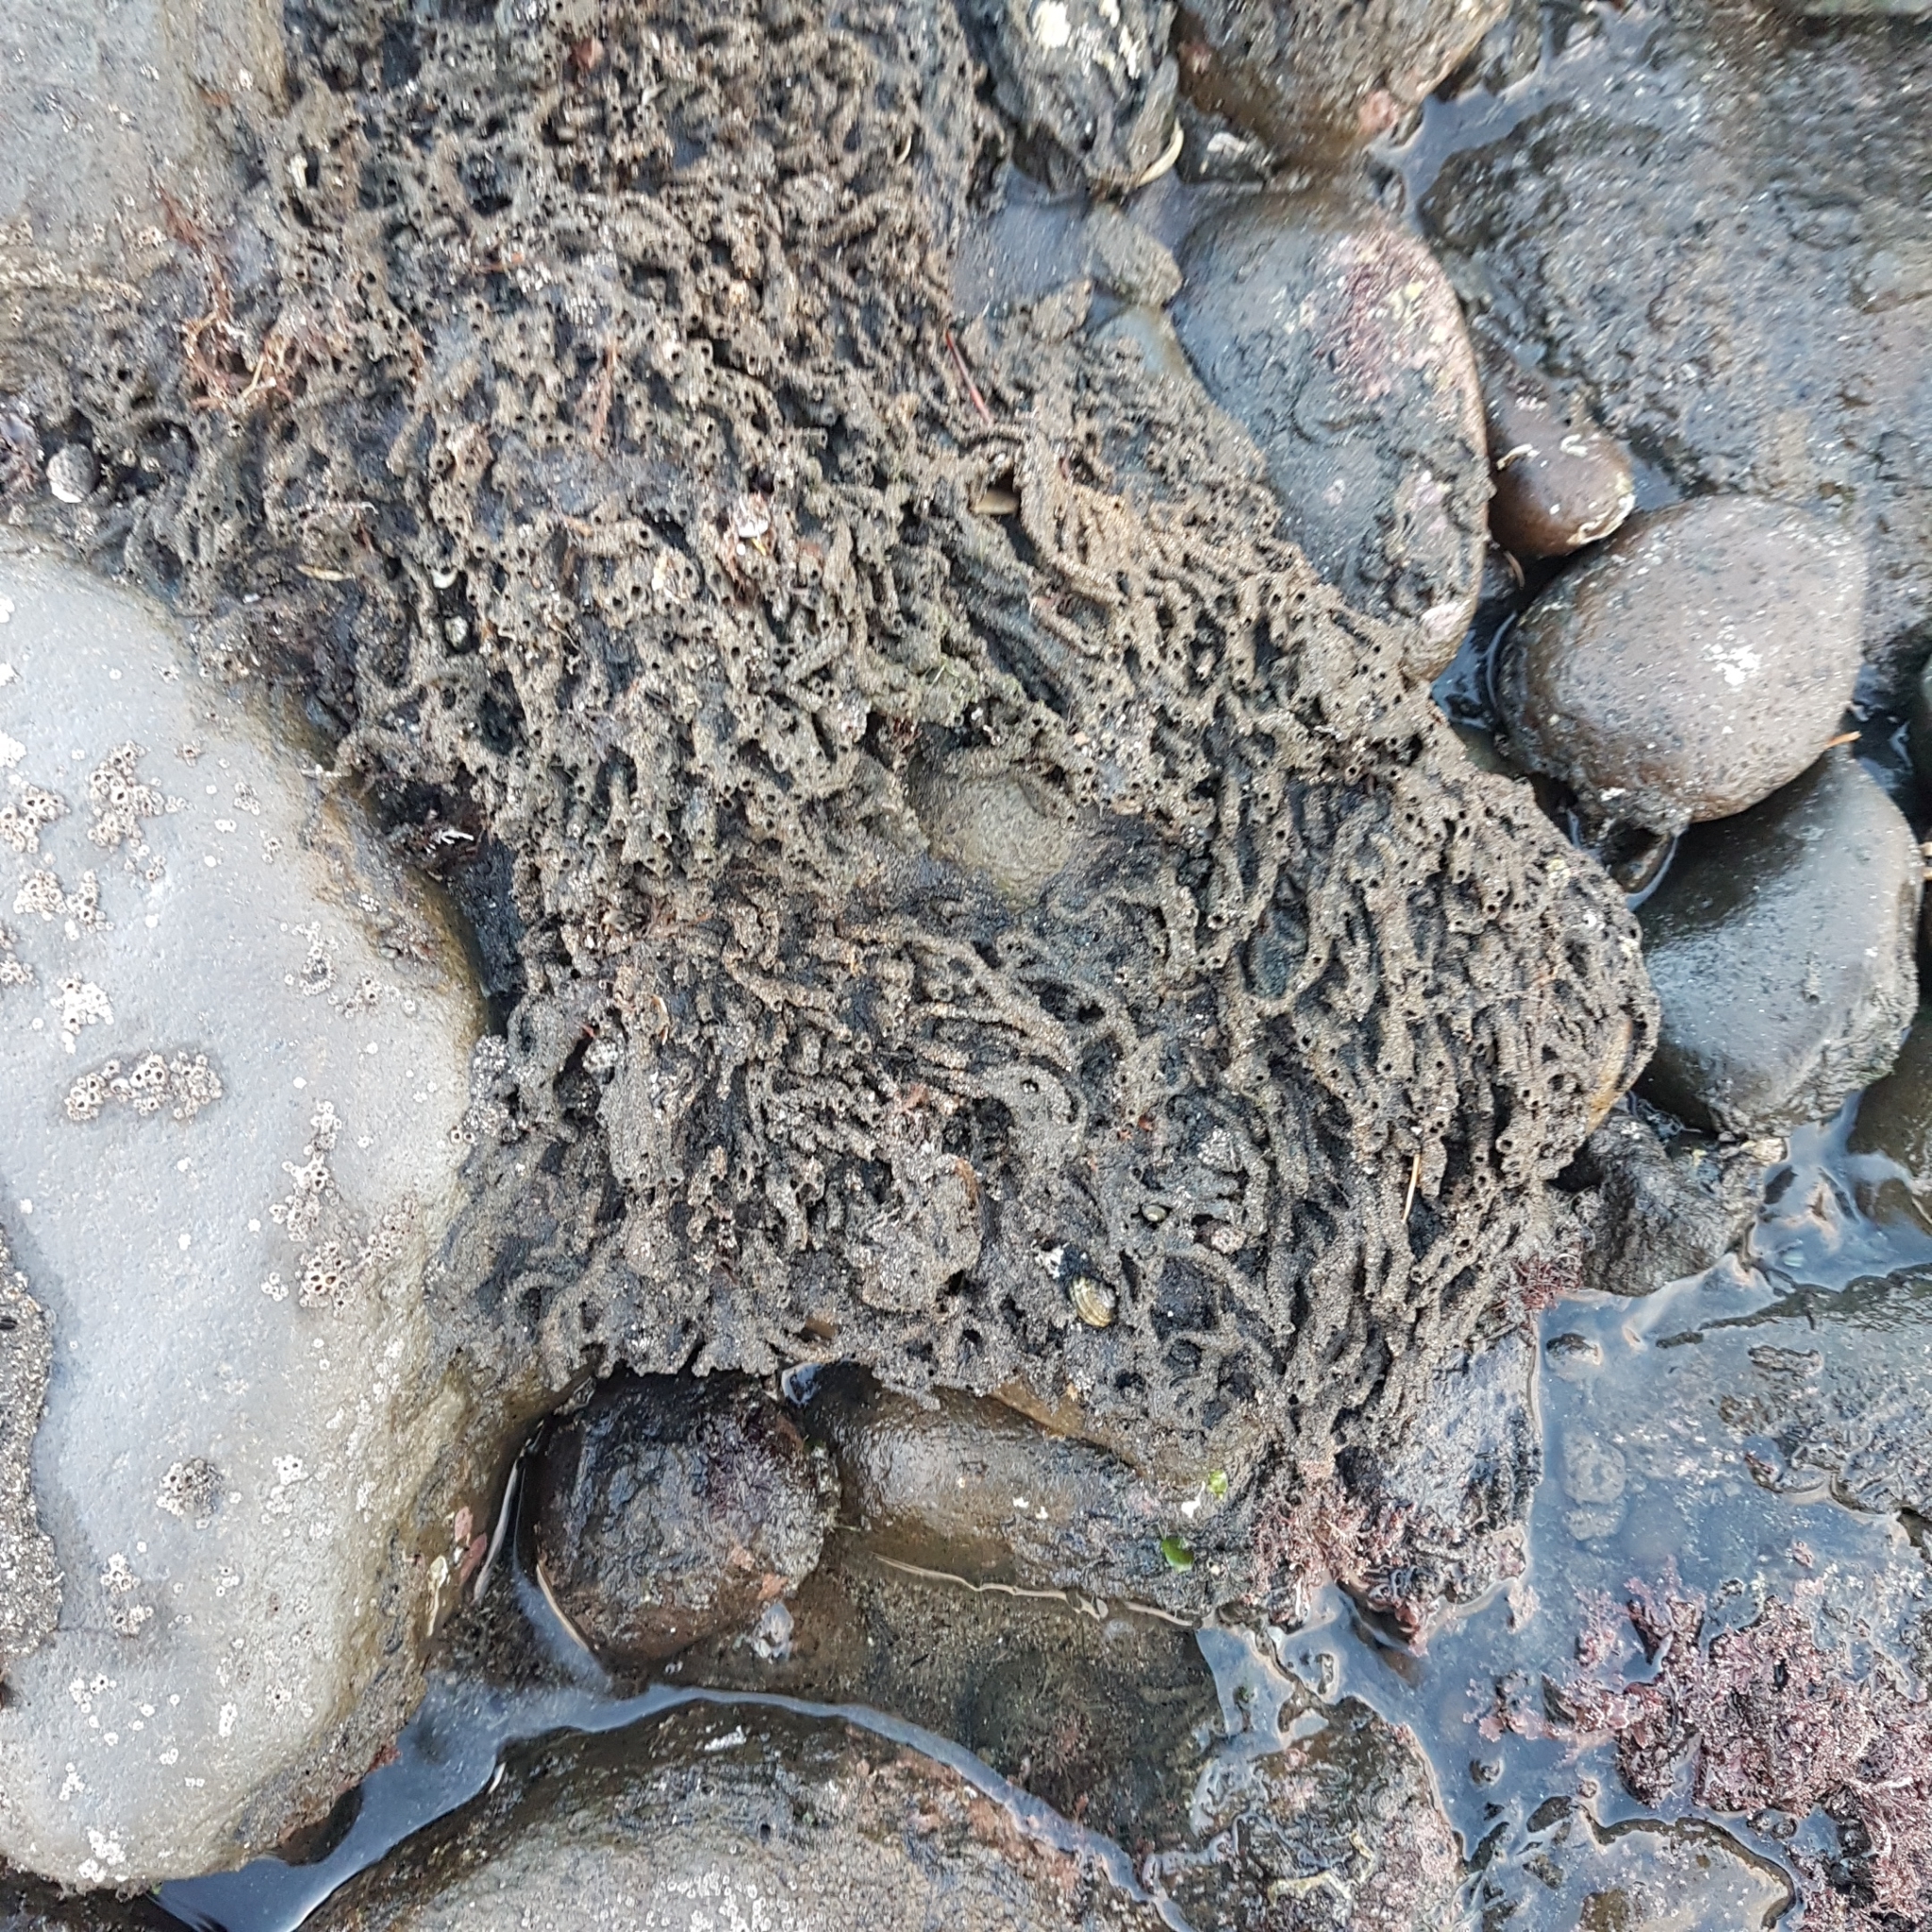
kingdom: Animalia
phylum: Annelida
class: Polychaeta
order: Sabellida
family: Sabellariidae
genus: Neosabellaria
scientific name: Neosabellaria kaiparaensis
